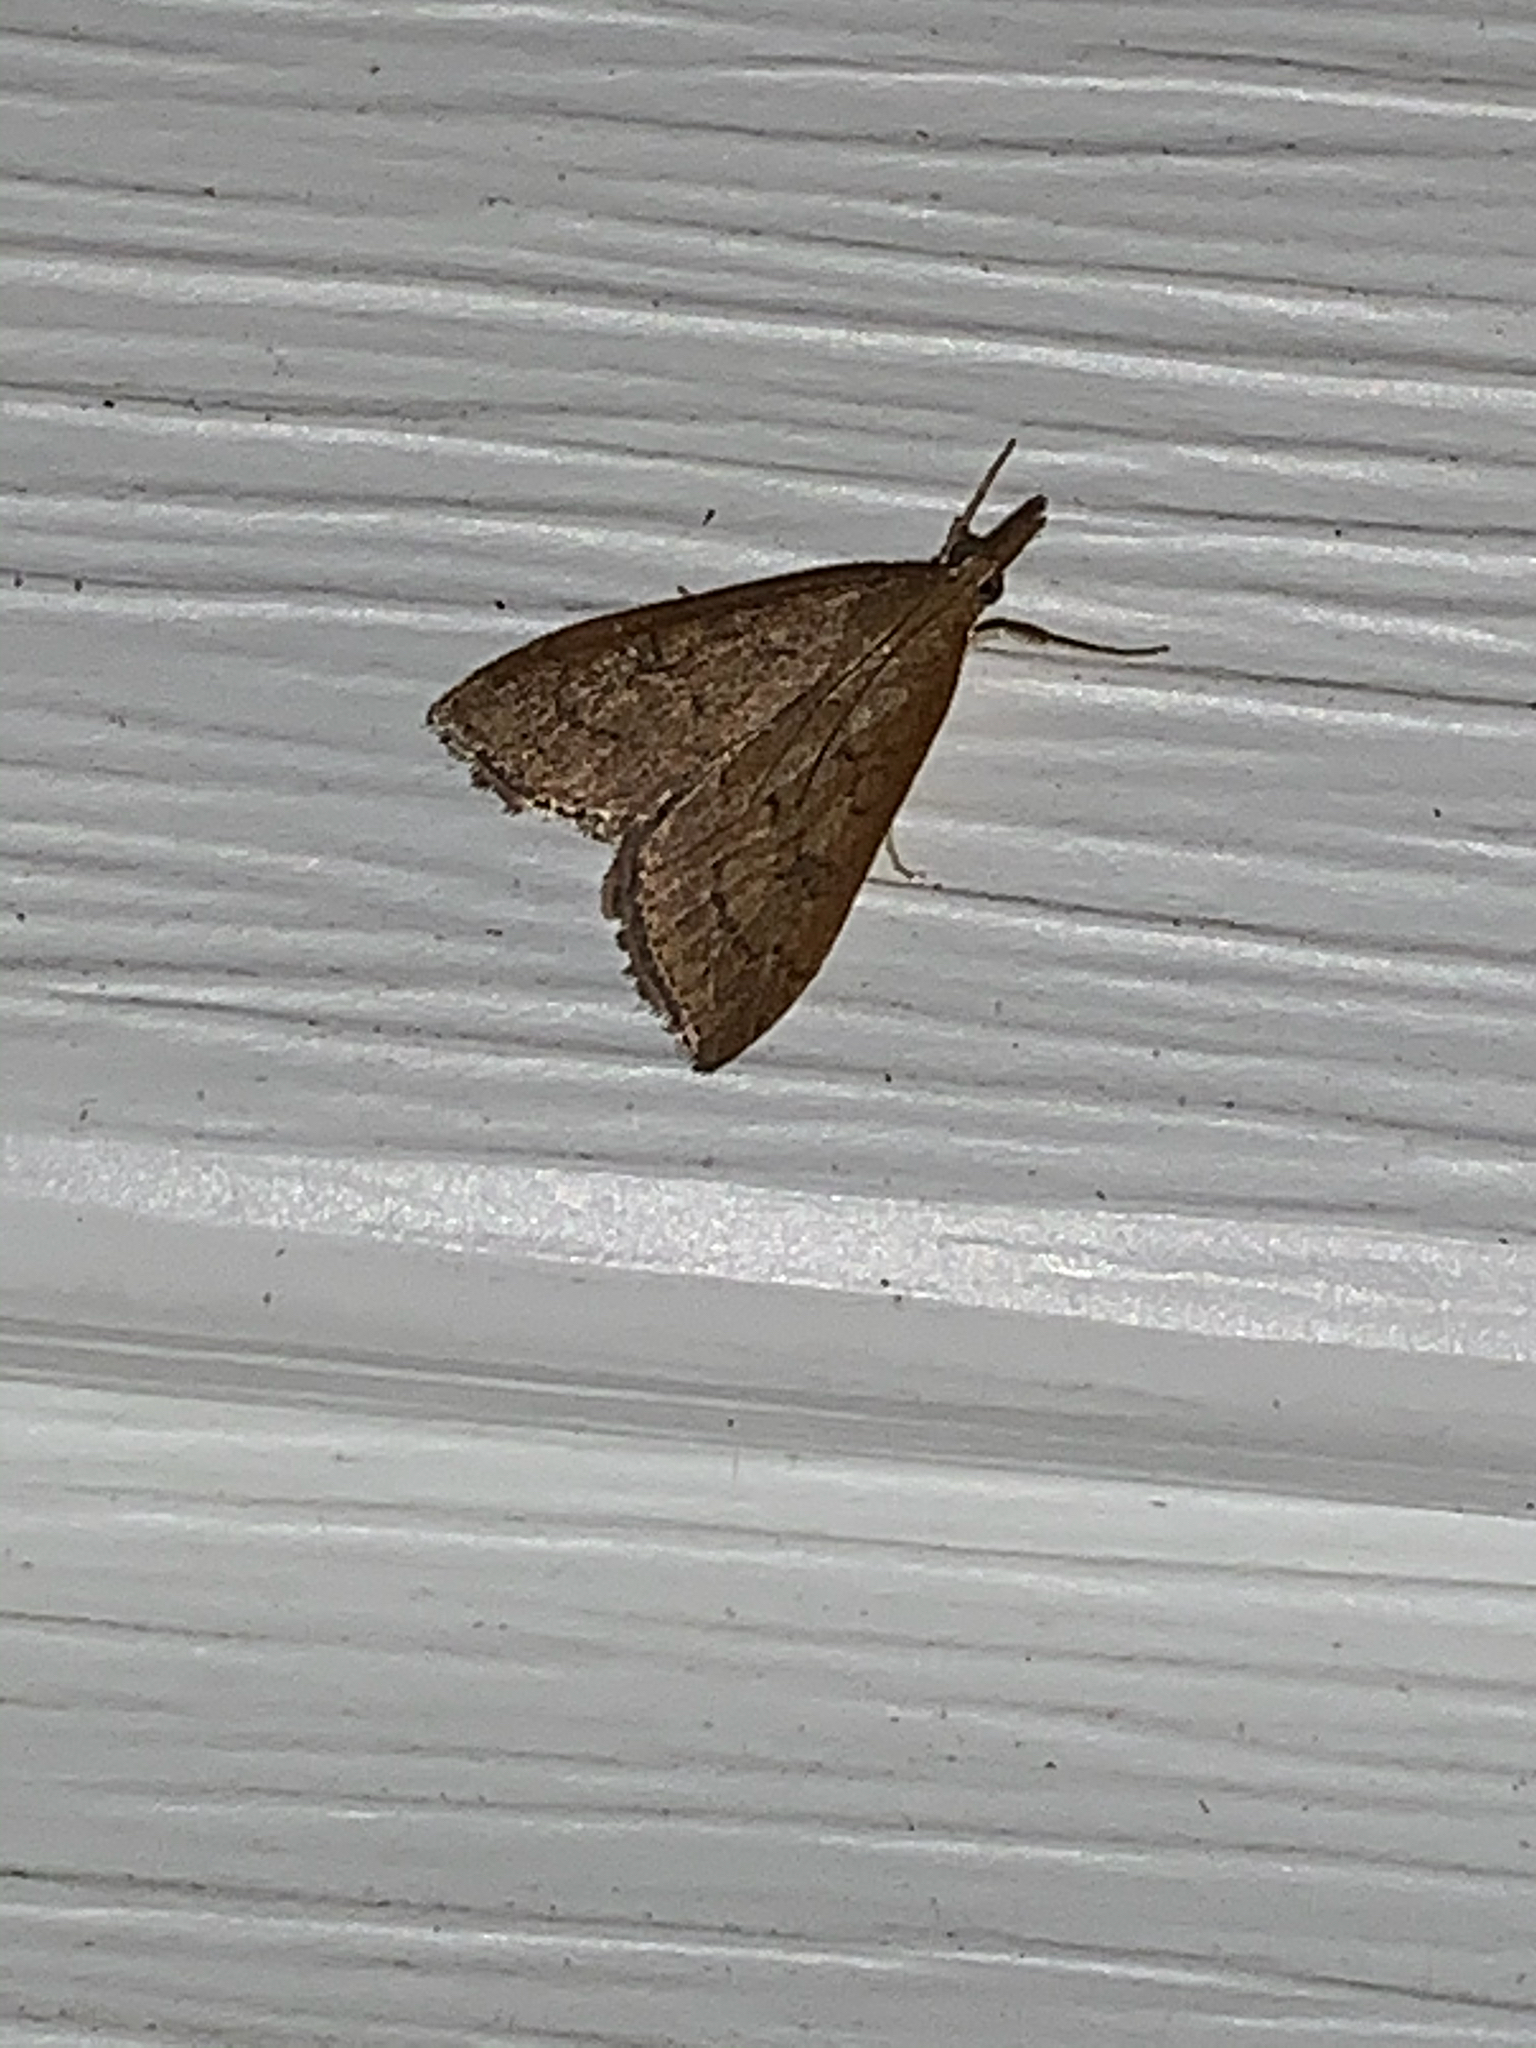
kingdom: Animalia
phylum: Arthropoda
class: Insecta
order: Lepidoptera
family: Crambidae
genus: Udea
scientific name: Udea rubigalis
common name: Celery leaftier moth
